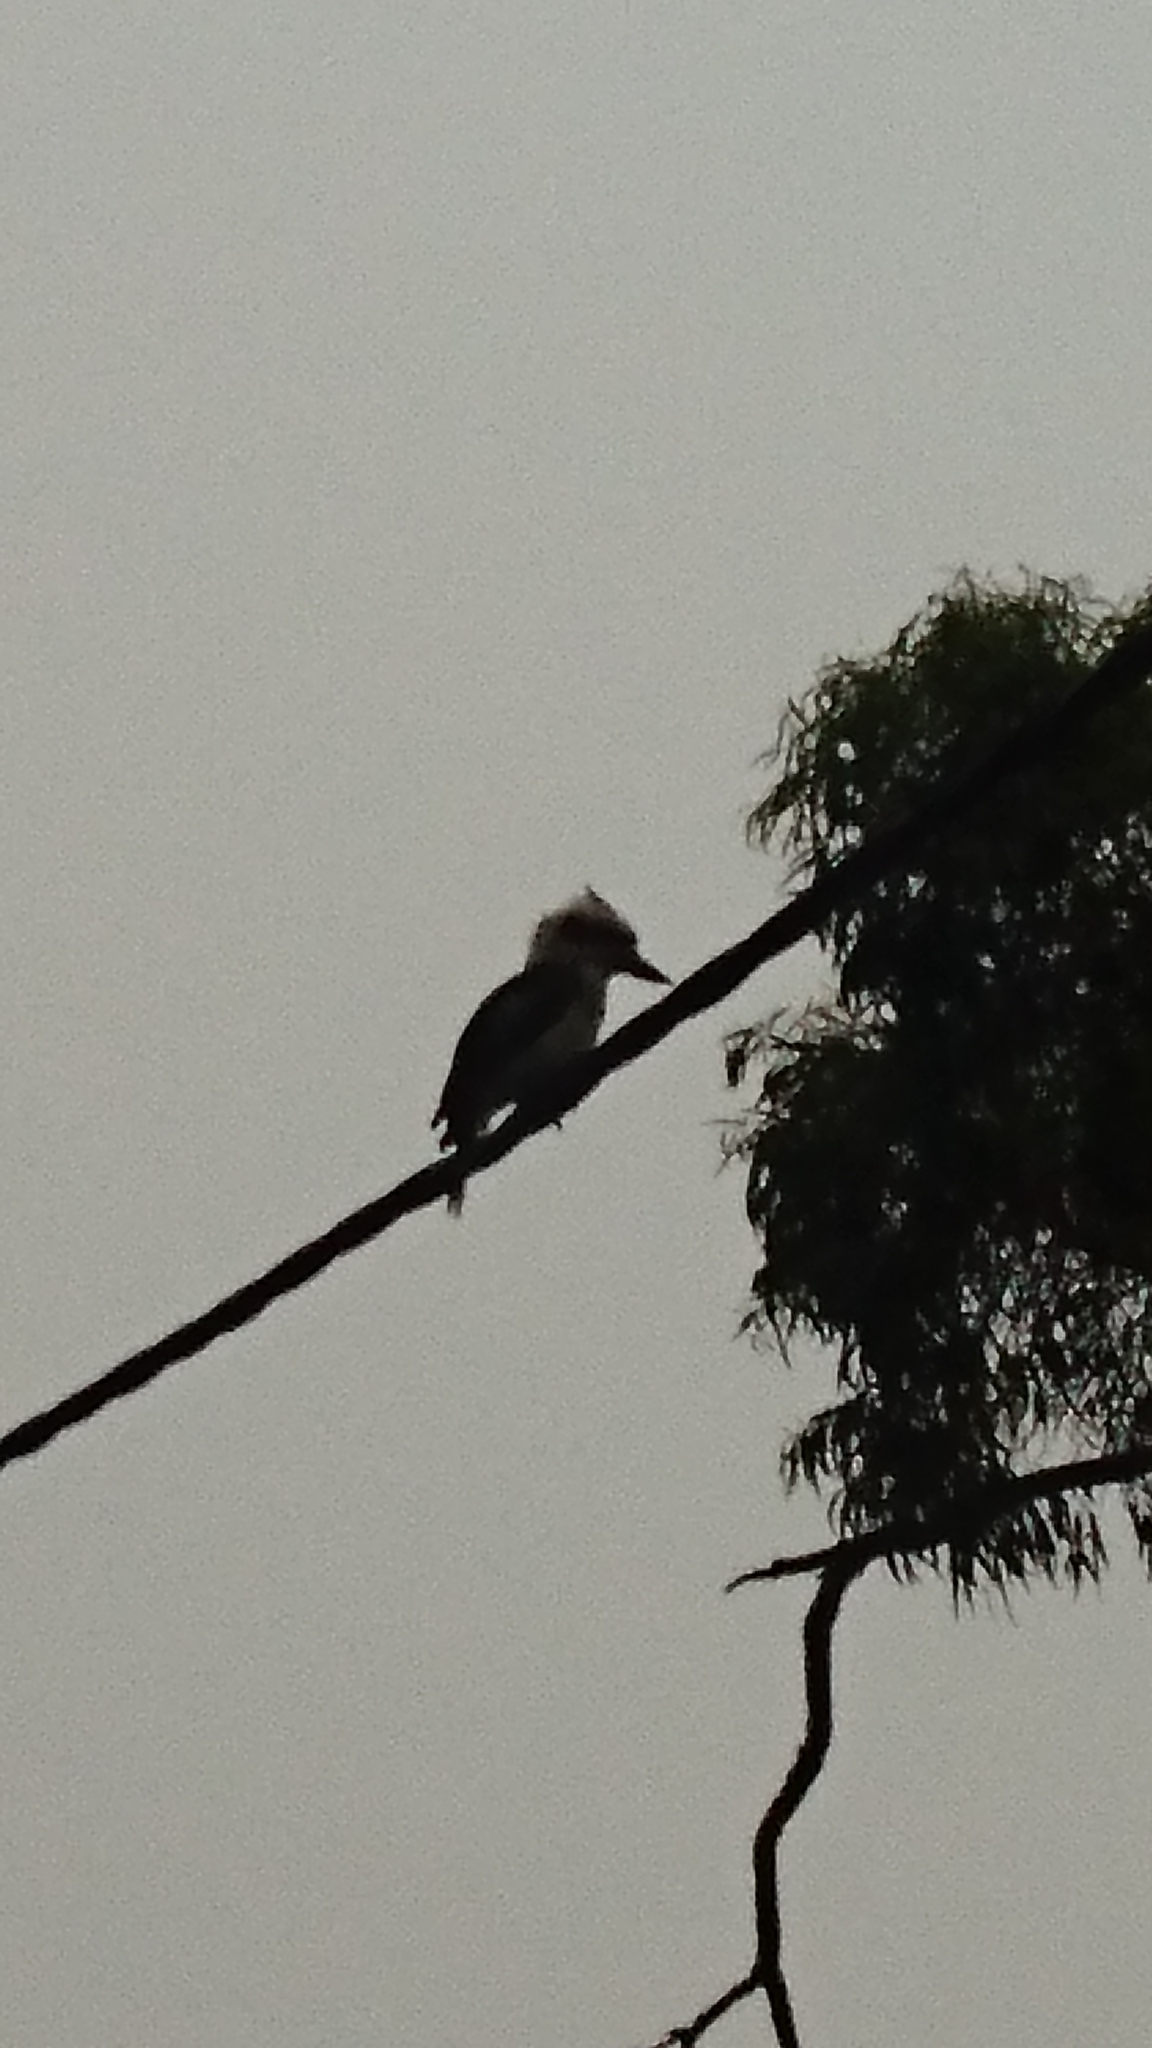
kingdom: Animalia
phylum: Chordata
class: Aves
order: Coraciiformes
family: Alcedinidae
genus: Dacelo
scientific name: Dacelo novaeguineae
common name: Laughing kookaburra
